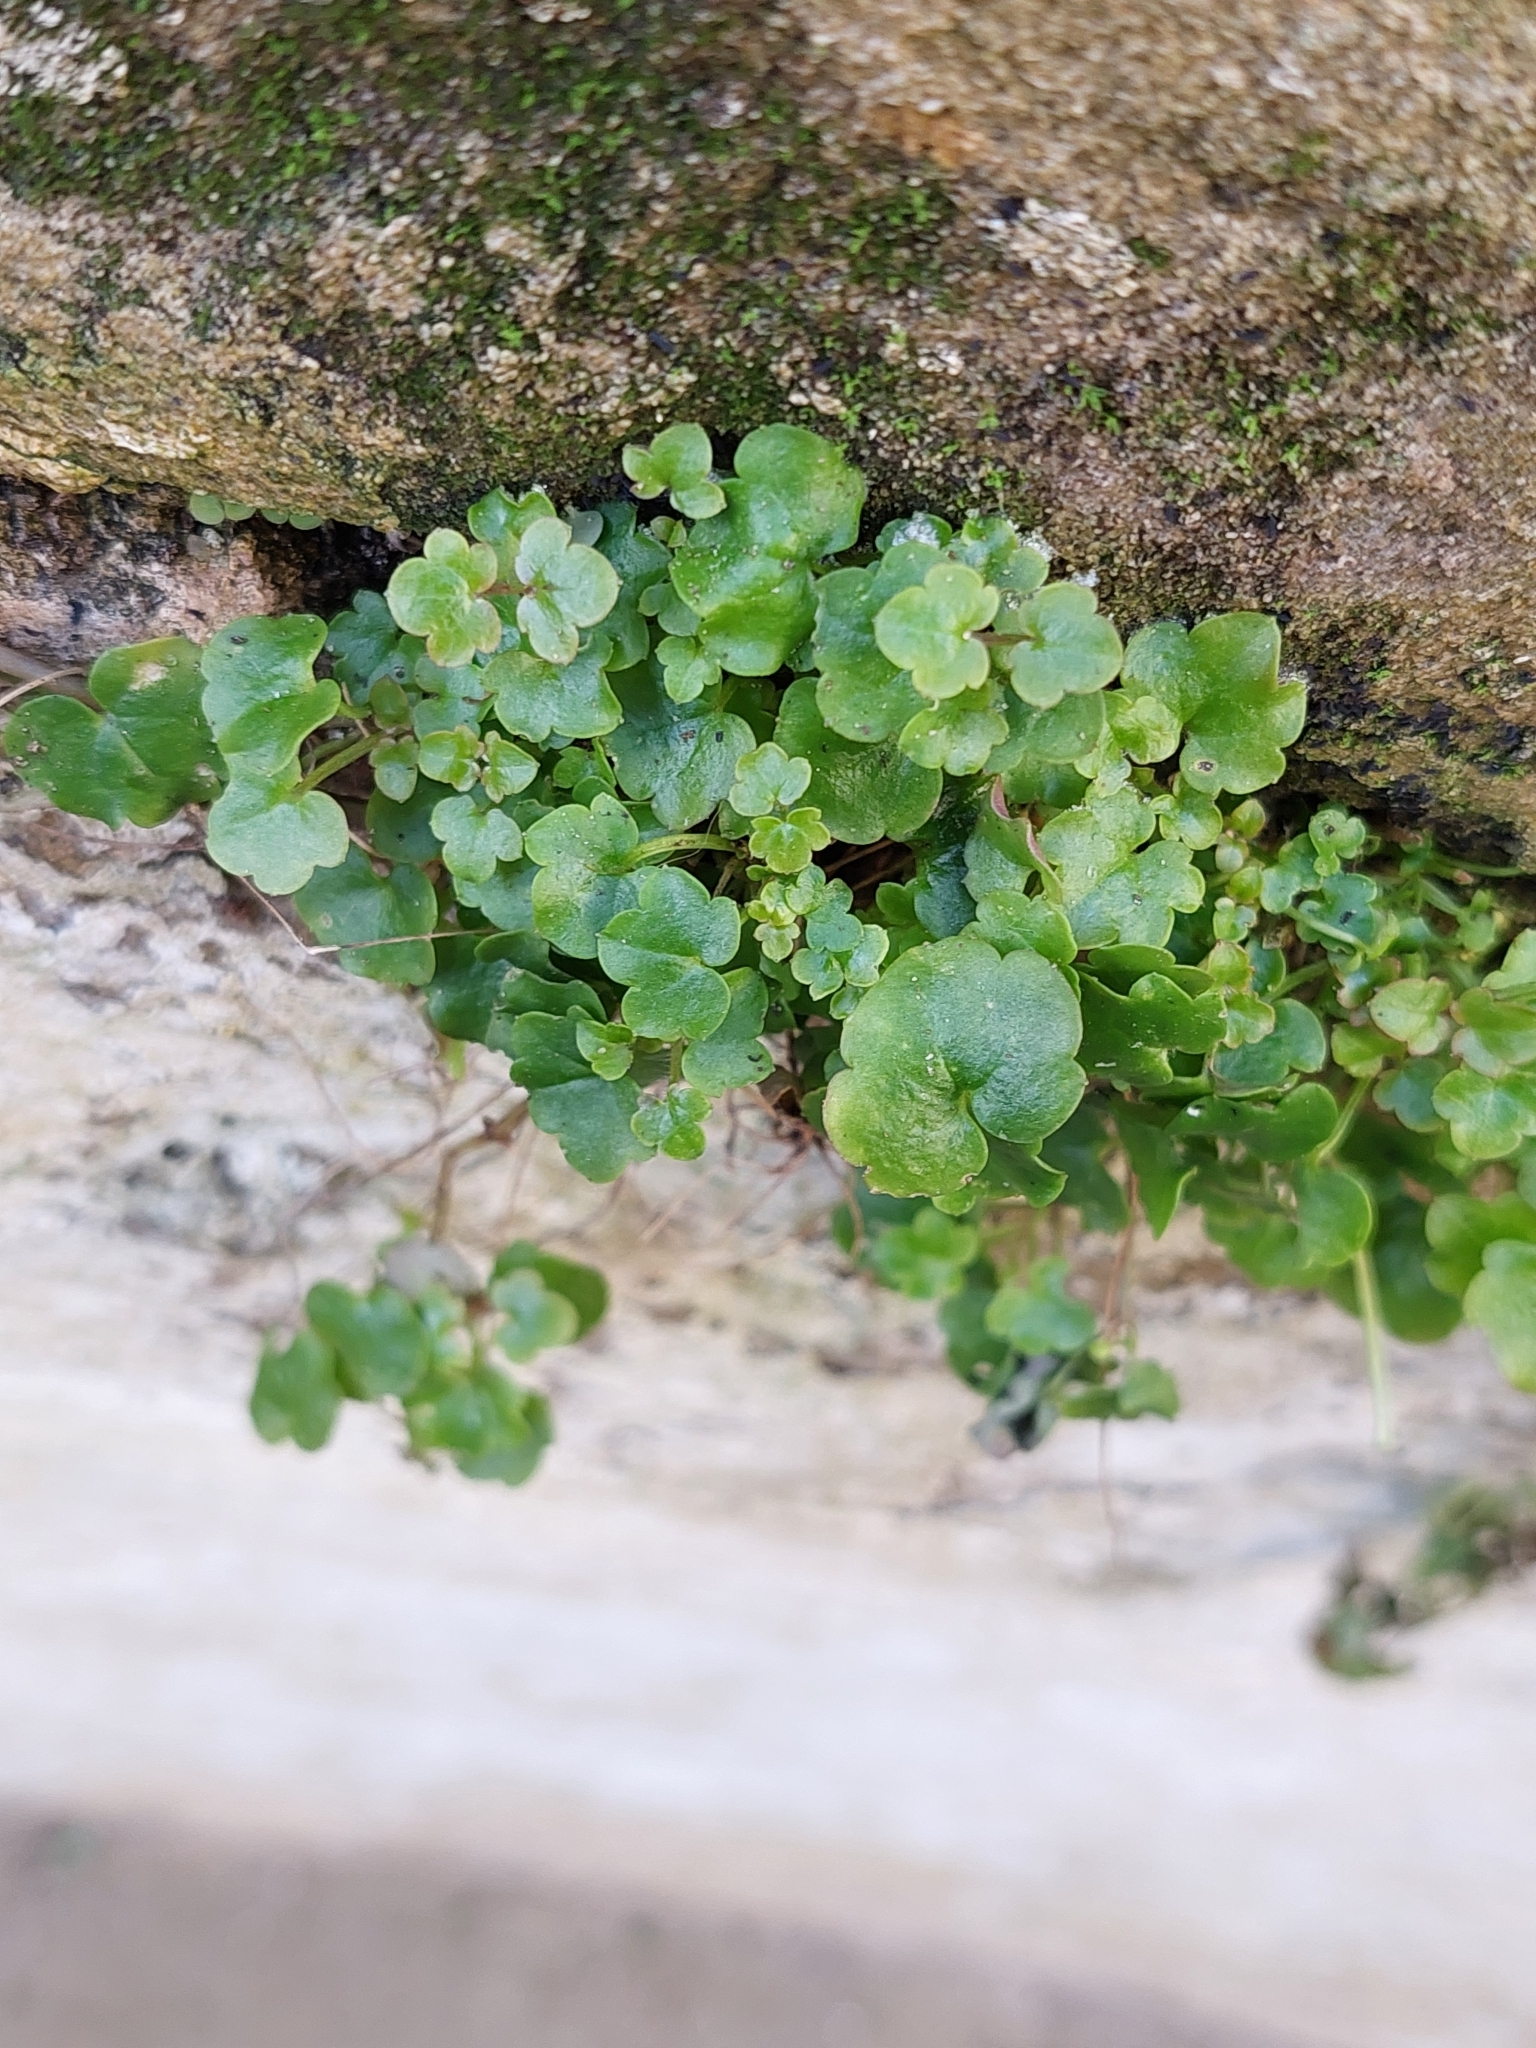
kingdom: Plantae
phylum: Tracheophyta
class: Magnoliopsida
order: Lamiales
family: Plantaginaceae
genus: Cymbalaria
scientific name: Cymbalaria muralis
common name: Ivy-leaved toadflax
